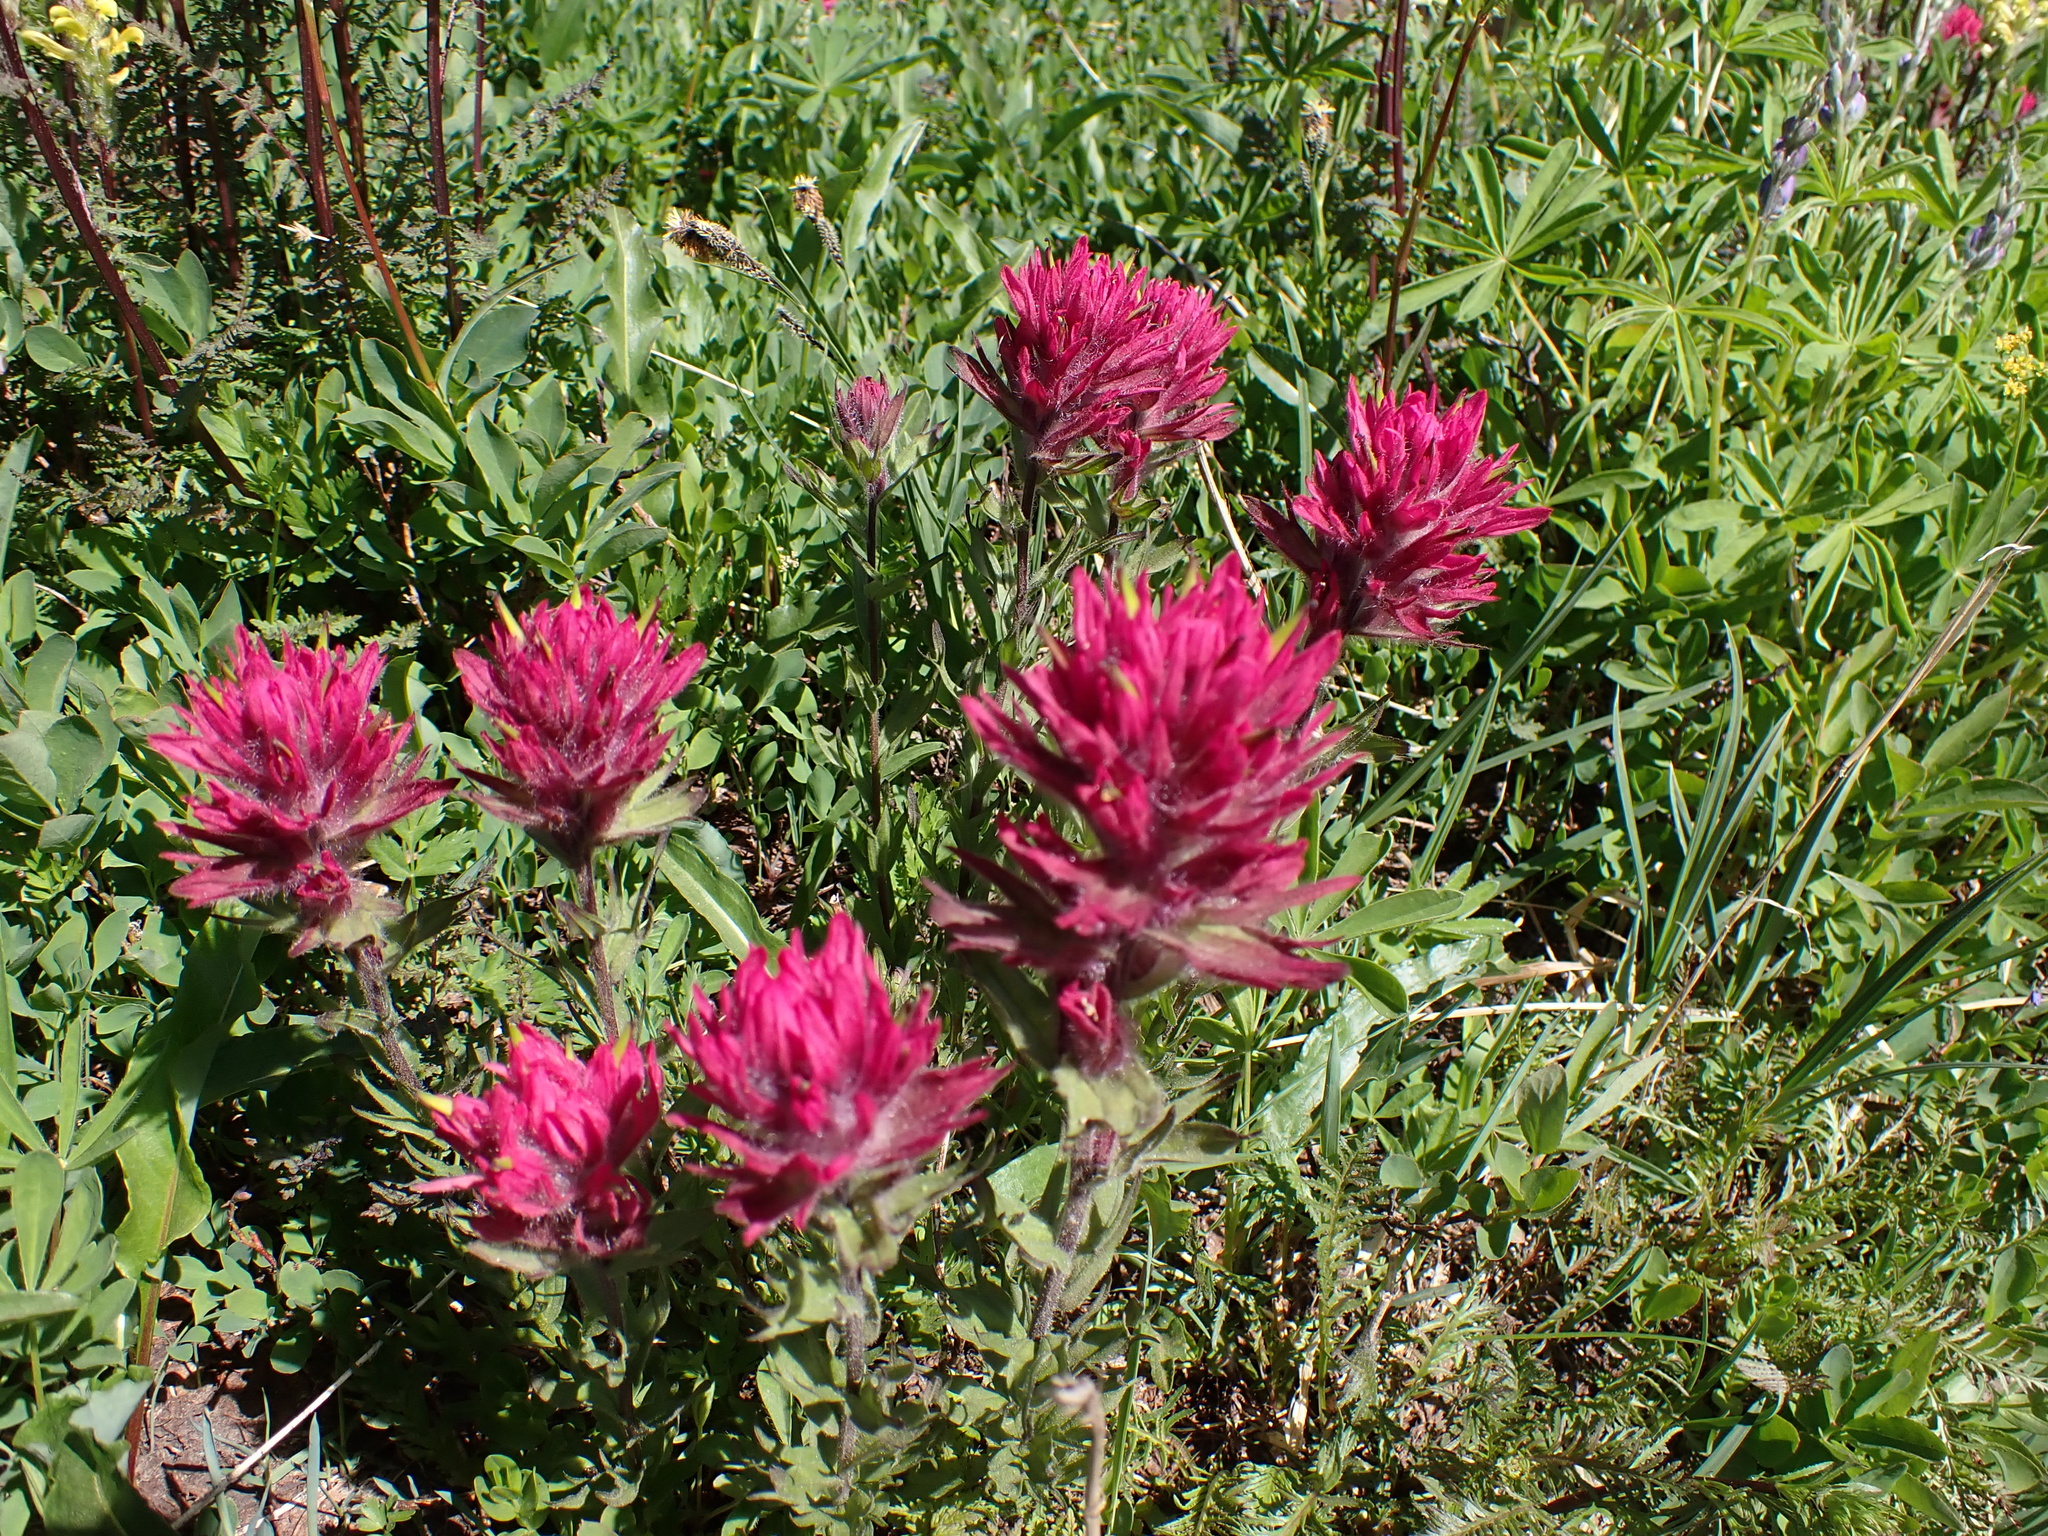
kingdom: Plantae
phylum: Tracheophyta
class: Magnoliopsida
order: Lamiales
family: Orobanchaceae
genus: Castilleja
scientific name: Castilleja parviflora
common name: Mountain paintbrush
